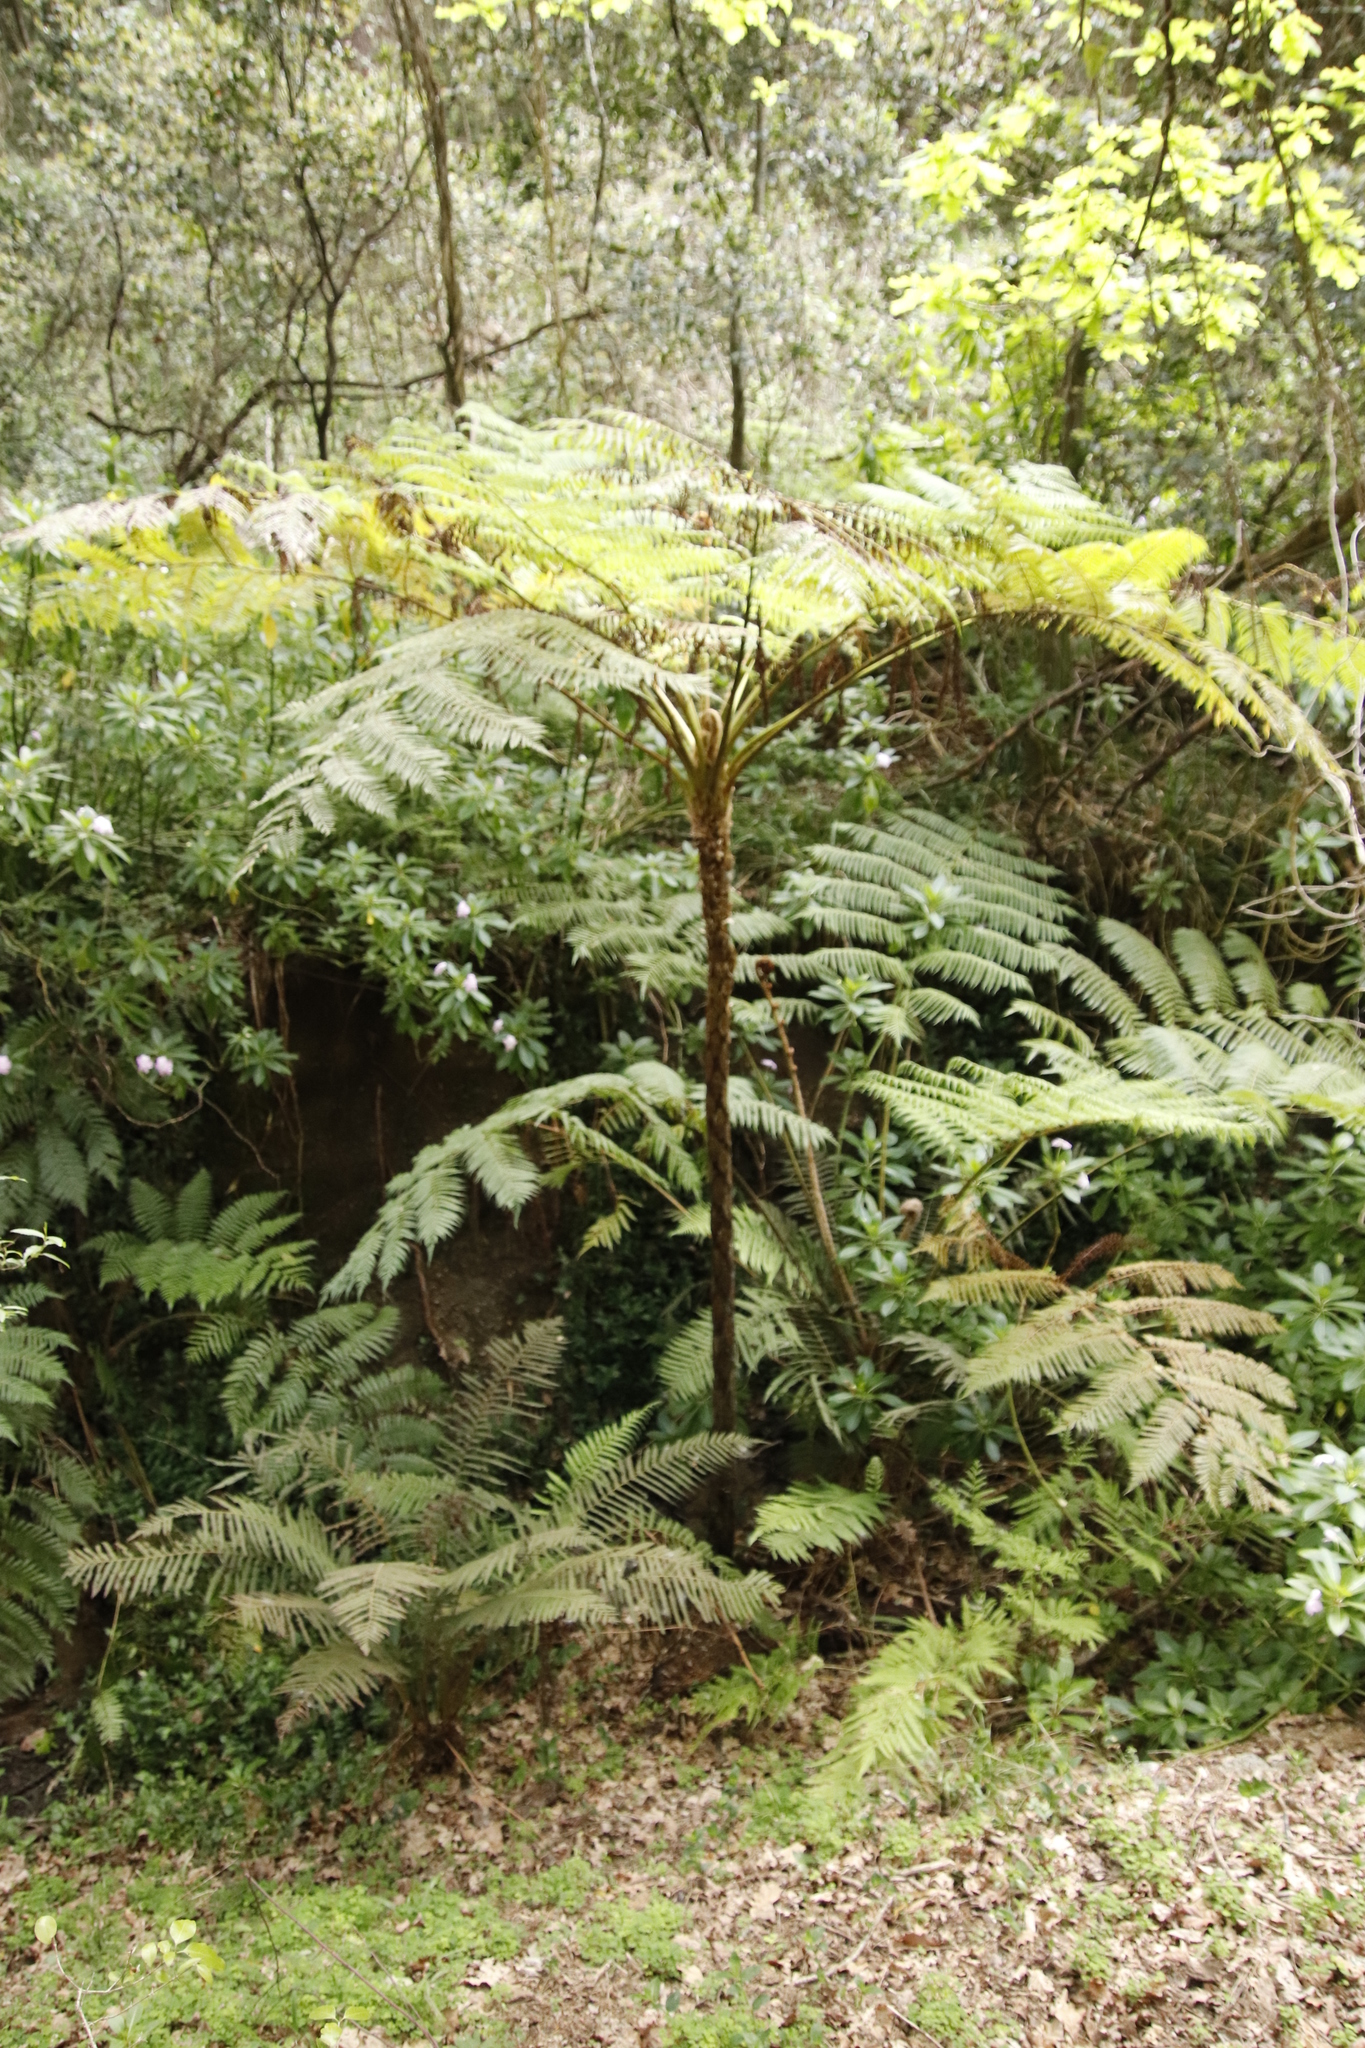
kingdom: Plantae
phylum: Tracheophyta
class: Polypodiopsida
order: Cyatheales
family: Cyatheaceae
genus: Sphaeropteris
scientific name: Sphaeropteris cooperi
